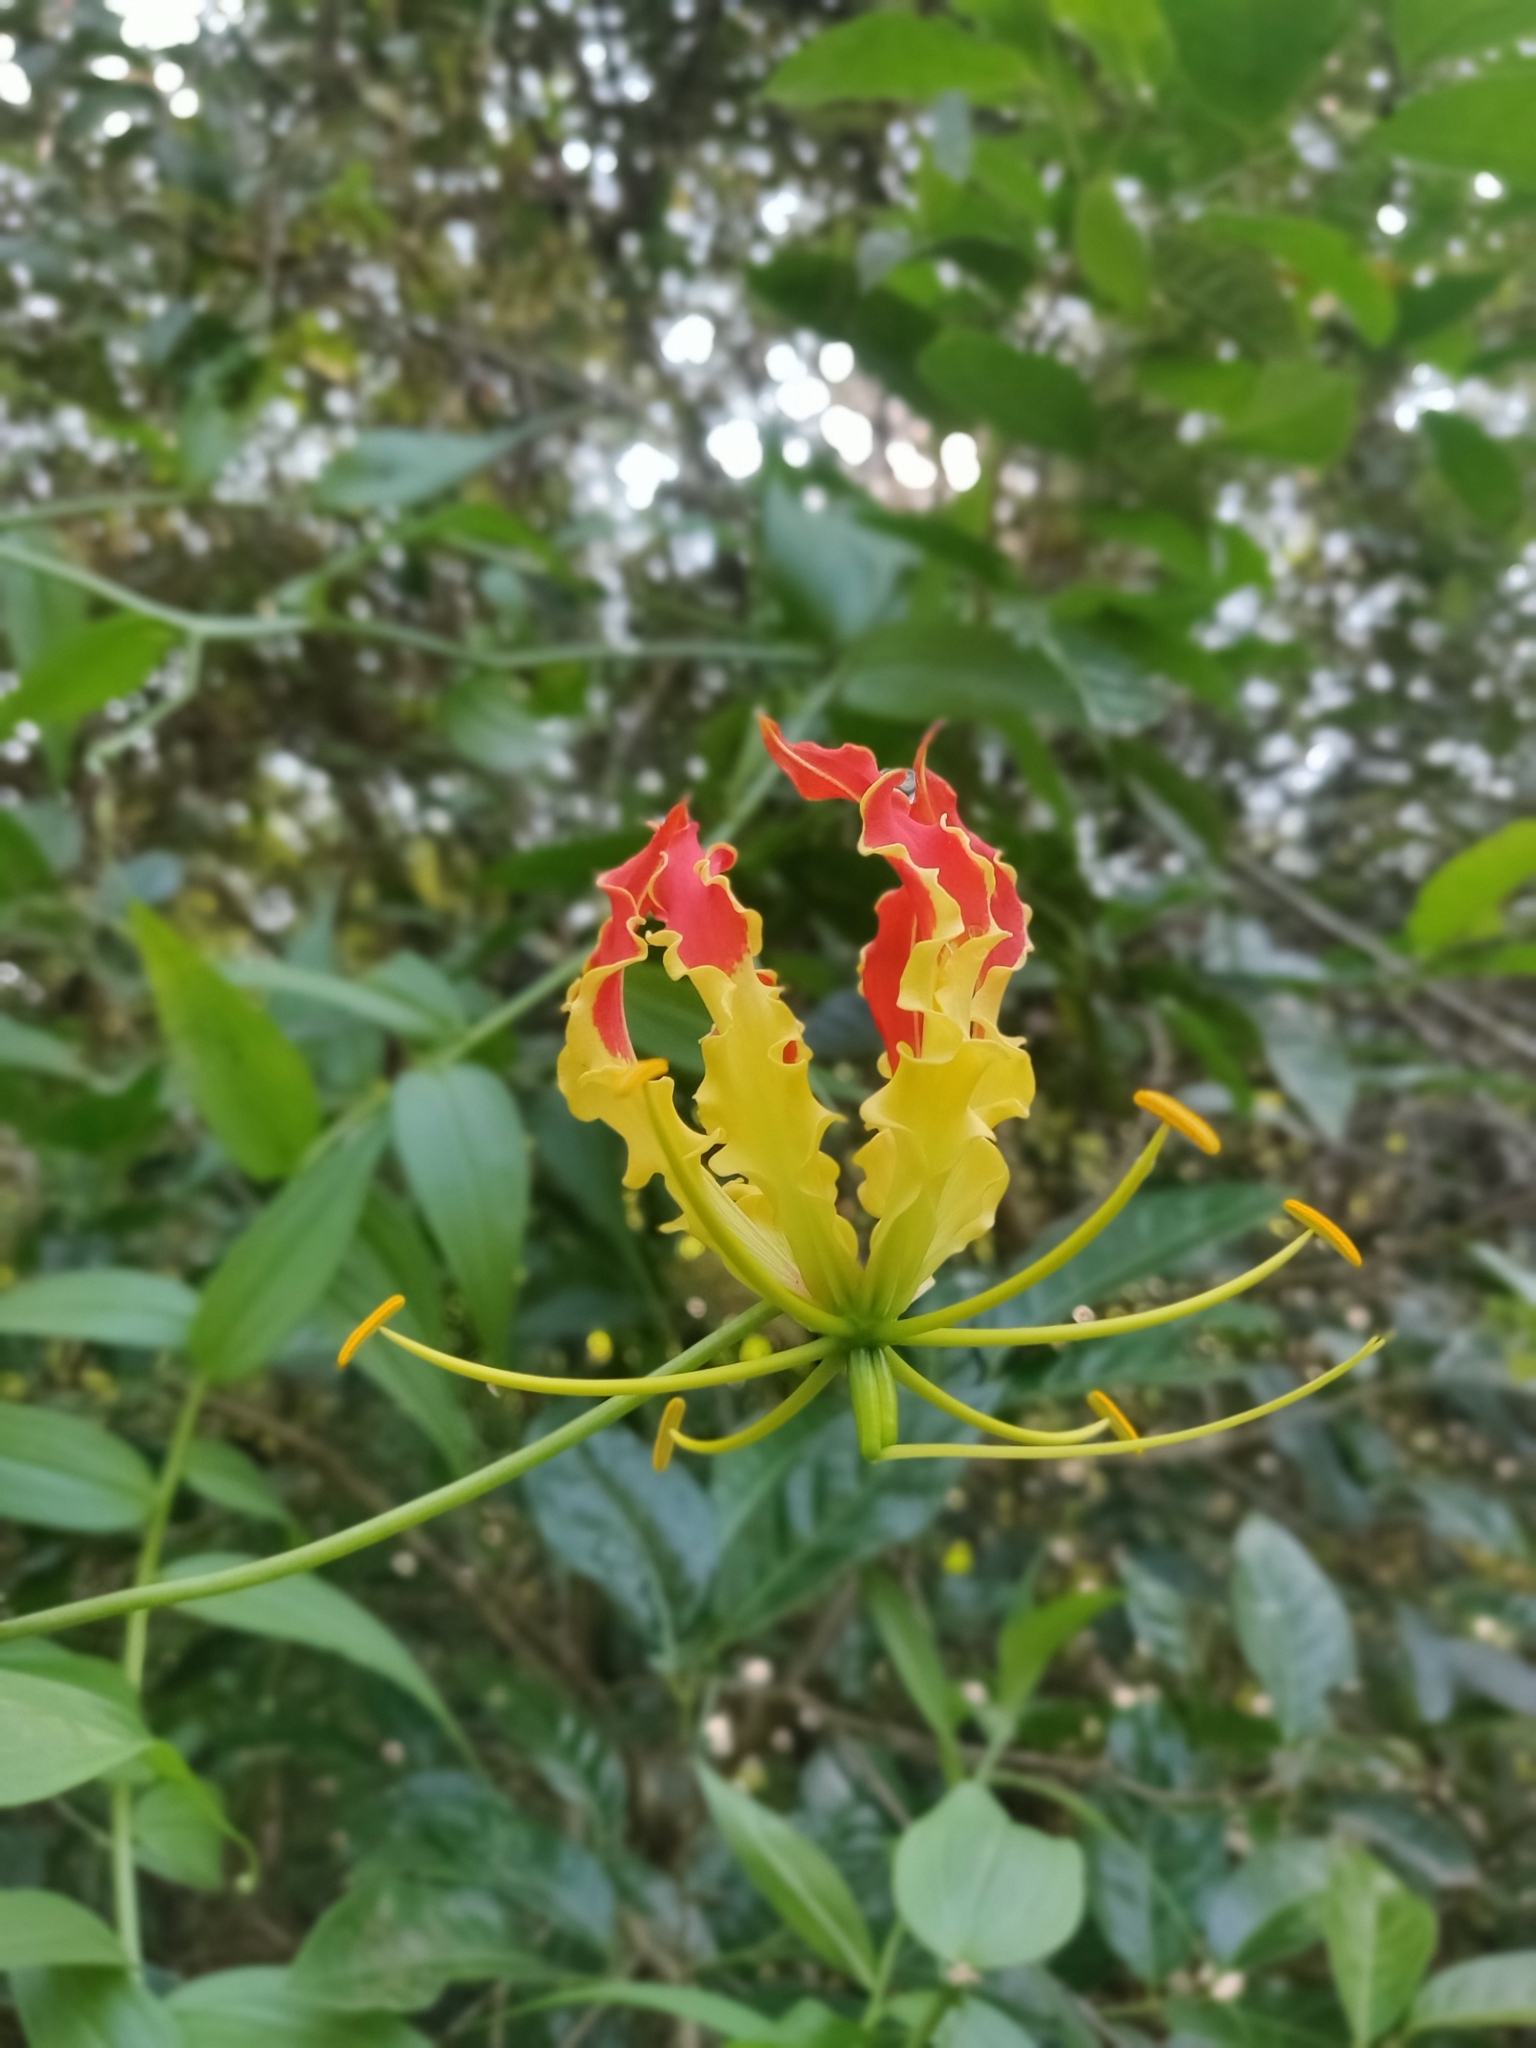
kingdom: Plantae
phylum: Tracheophyta
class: Liliopsida
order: Liliales
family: Colchicaceae
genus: Gloriosa
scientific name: Gloriosa superba
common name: Flame lily
